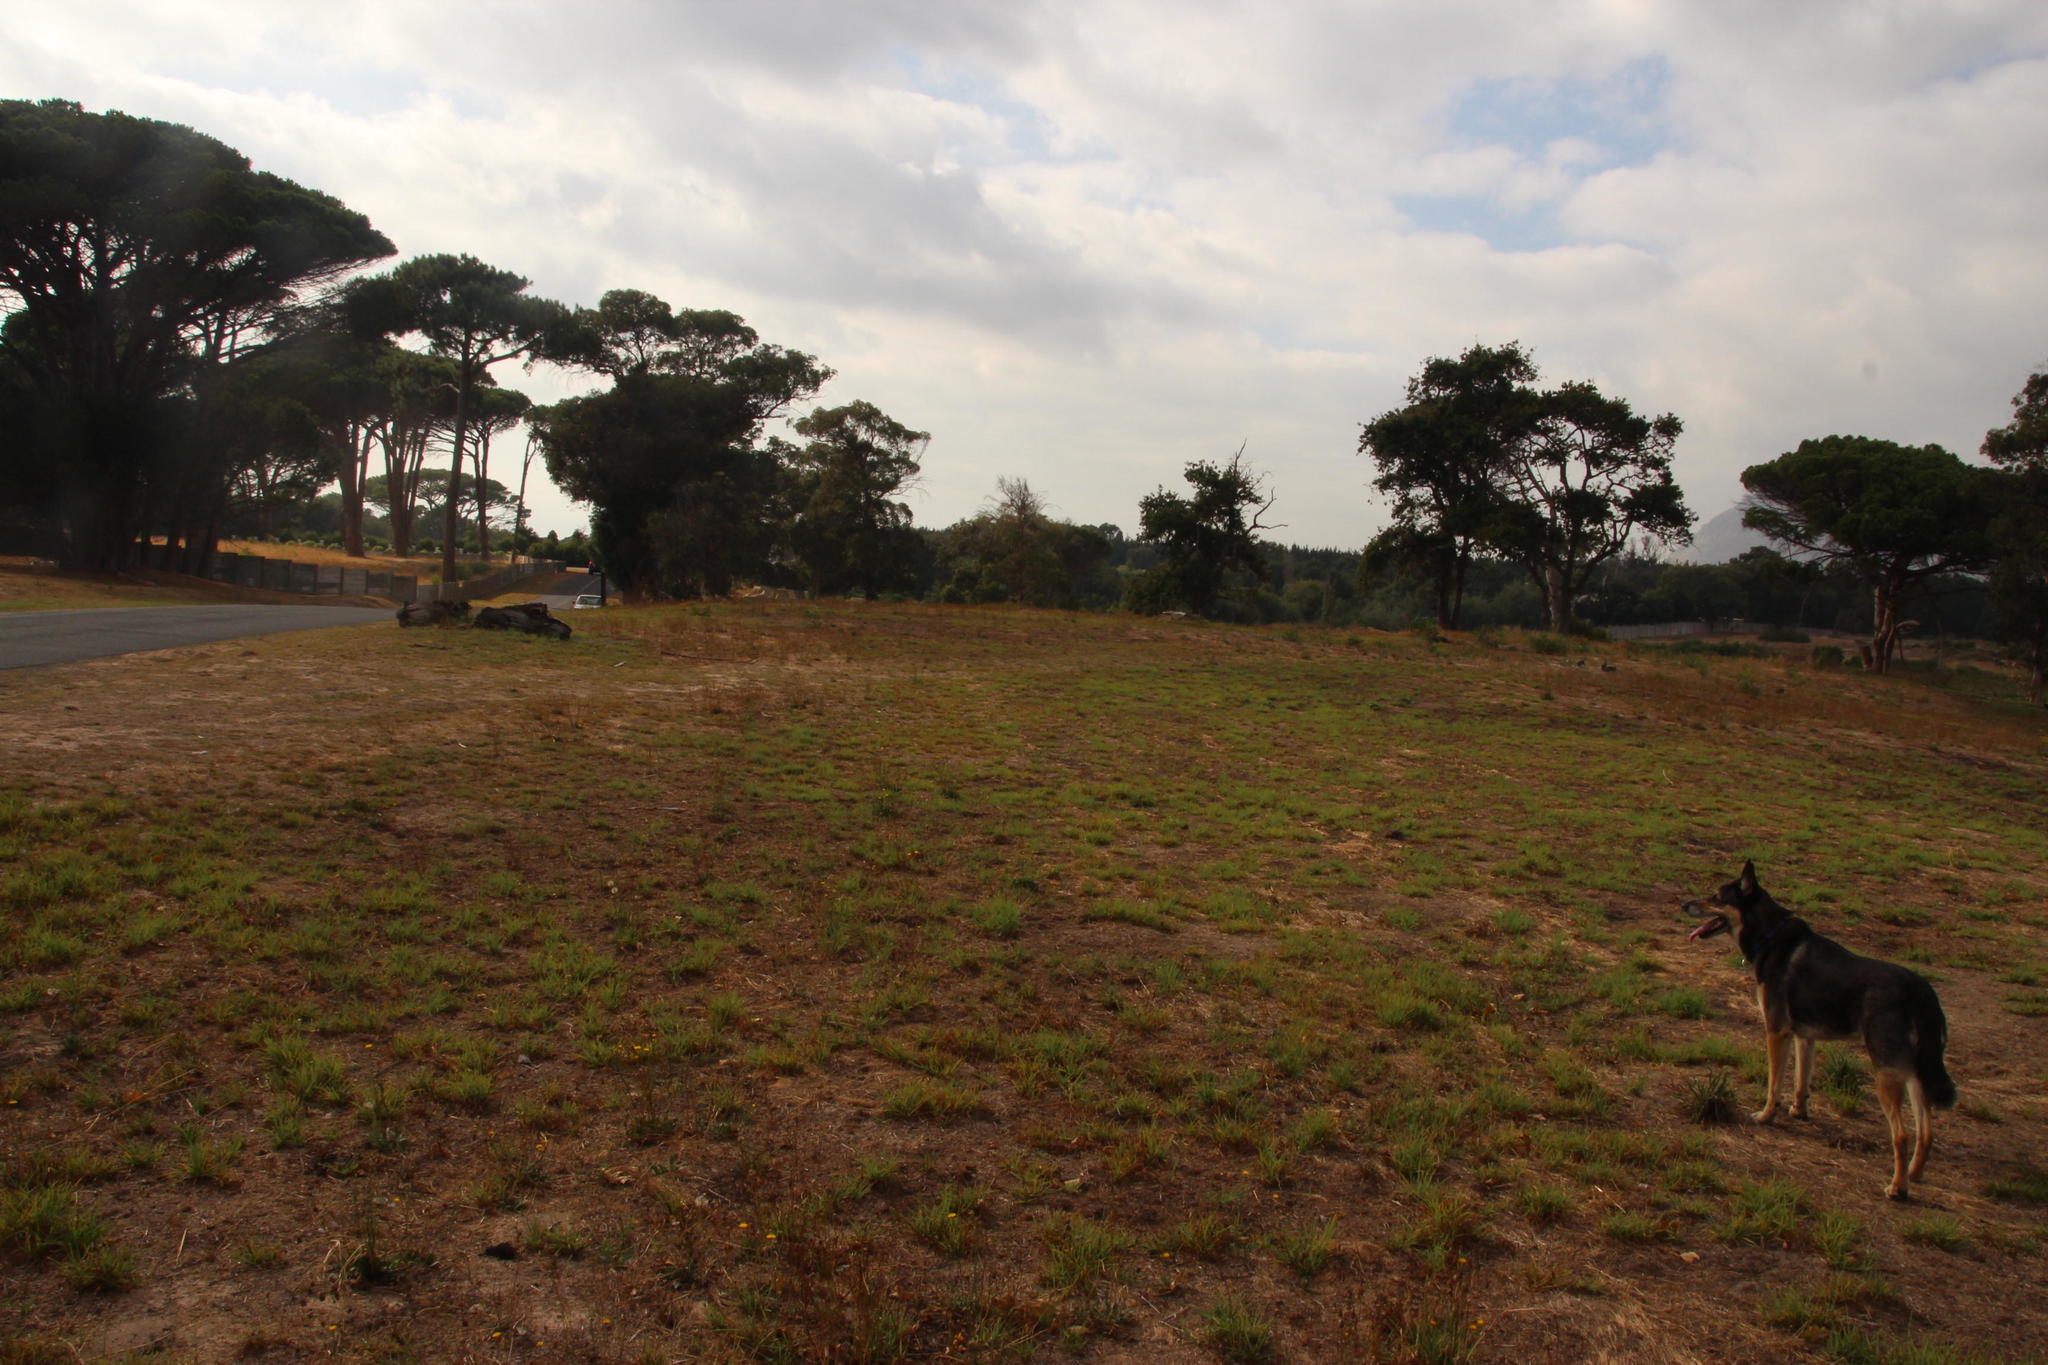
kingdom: Plantae
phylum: Tracheophyta
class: Liliopsida
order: Poales
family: Poaceae
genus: Cenchrus
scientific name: Cenchrus clandestinus
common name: Kikuyugrass
